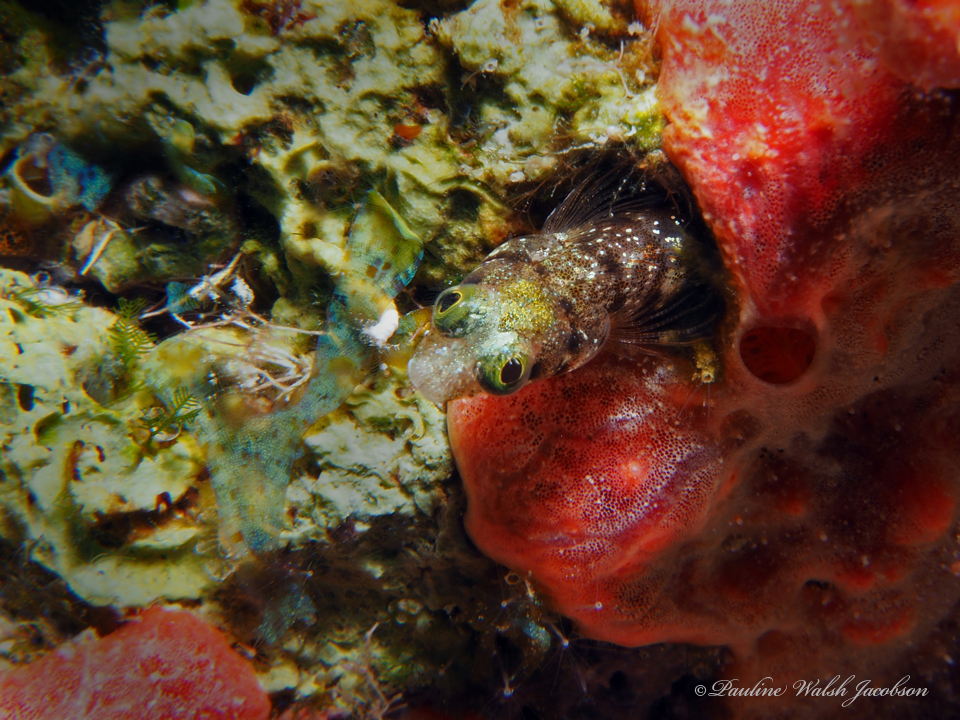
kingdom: Animalia
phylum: Chordata
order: Perciformes
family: Chaenopsidae
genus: Acanthemblemaria
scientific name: Acanthemblemaria spinosa
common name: Spinyhead blenny
